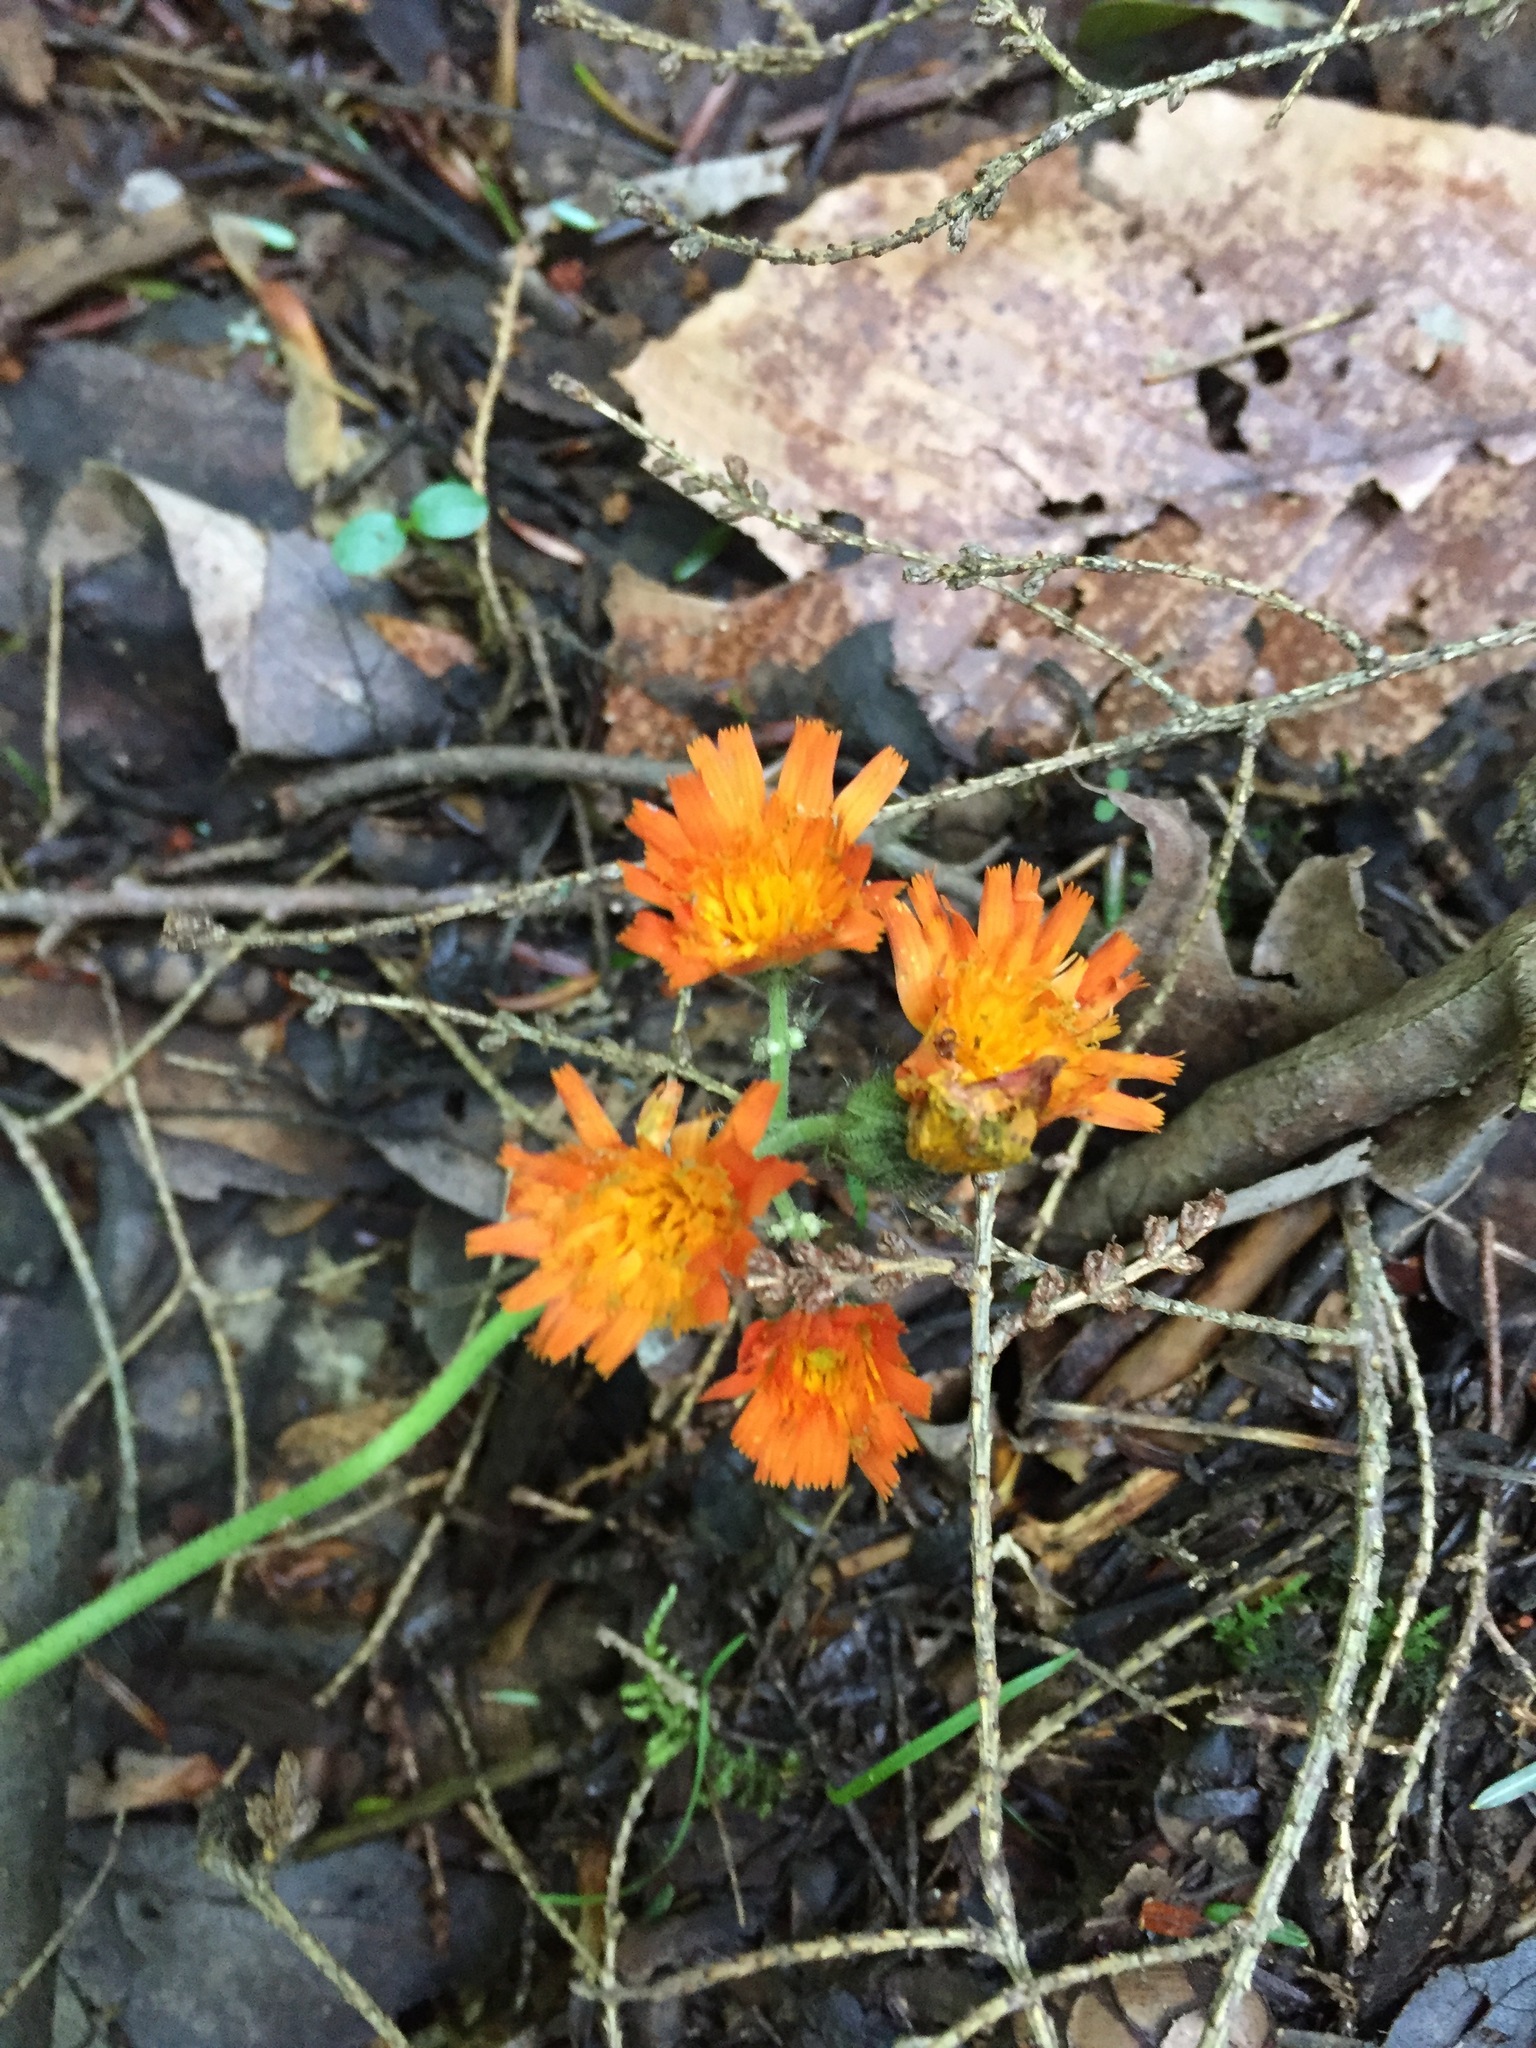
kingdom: Plantae
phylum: Tracheophyta
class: Magnoliopsida
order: Asterales
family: Asteraceae
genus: Pilosella
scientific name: Pilosella aurantiaca
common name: Fox-and-cubs
